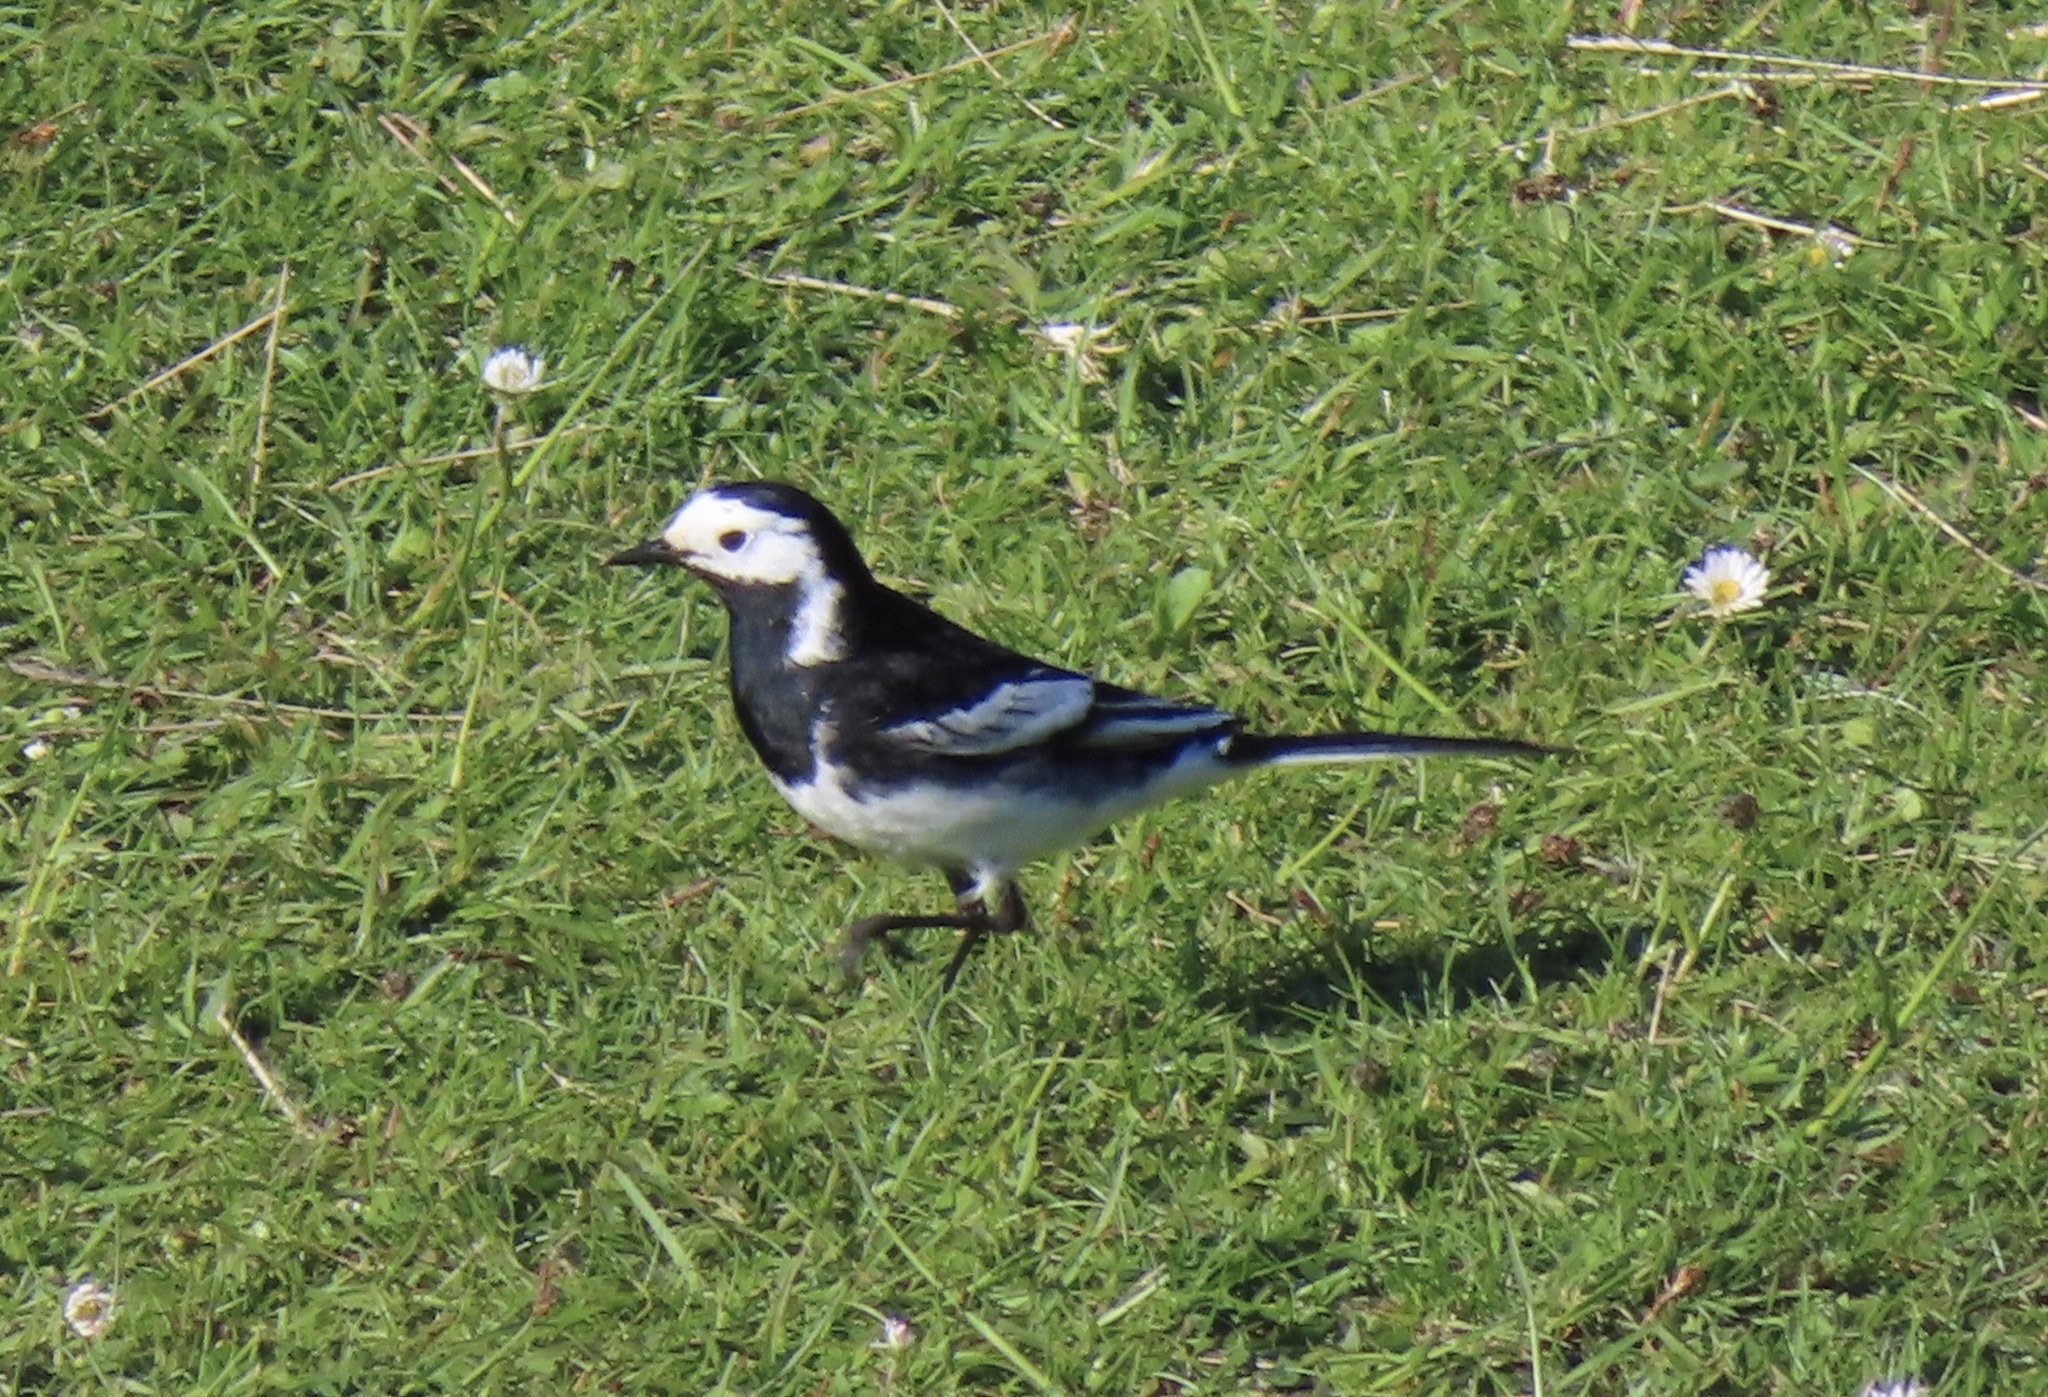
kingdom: Animalia
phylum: Chordata
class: Aves
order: Passeriformes
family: Motacillidae
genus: Motacilla
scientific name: Motacilla alba
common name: White wagtail
